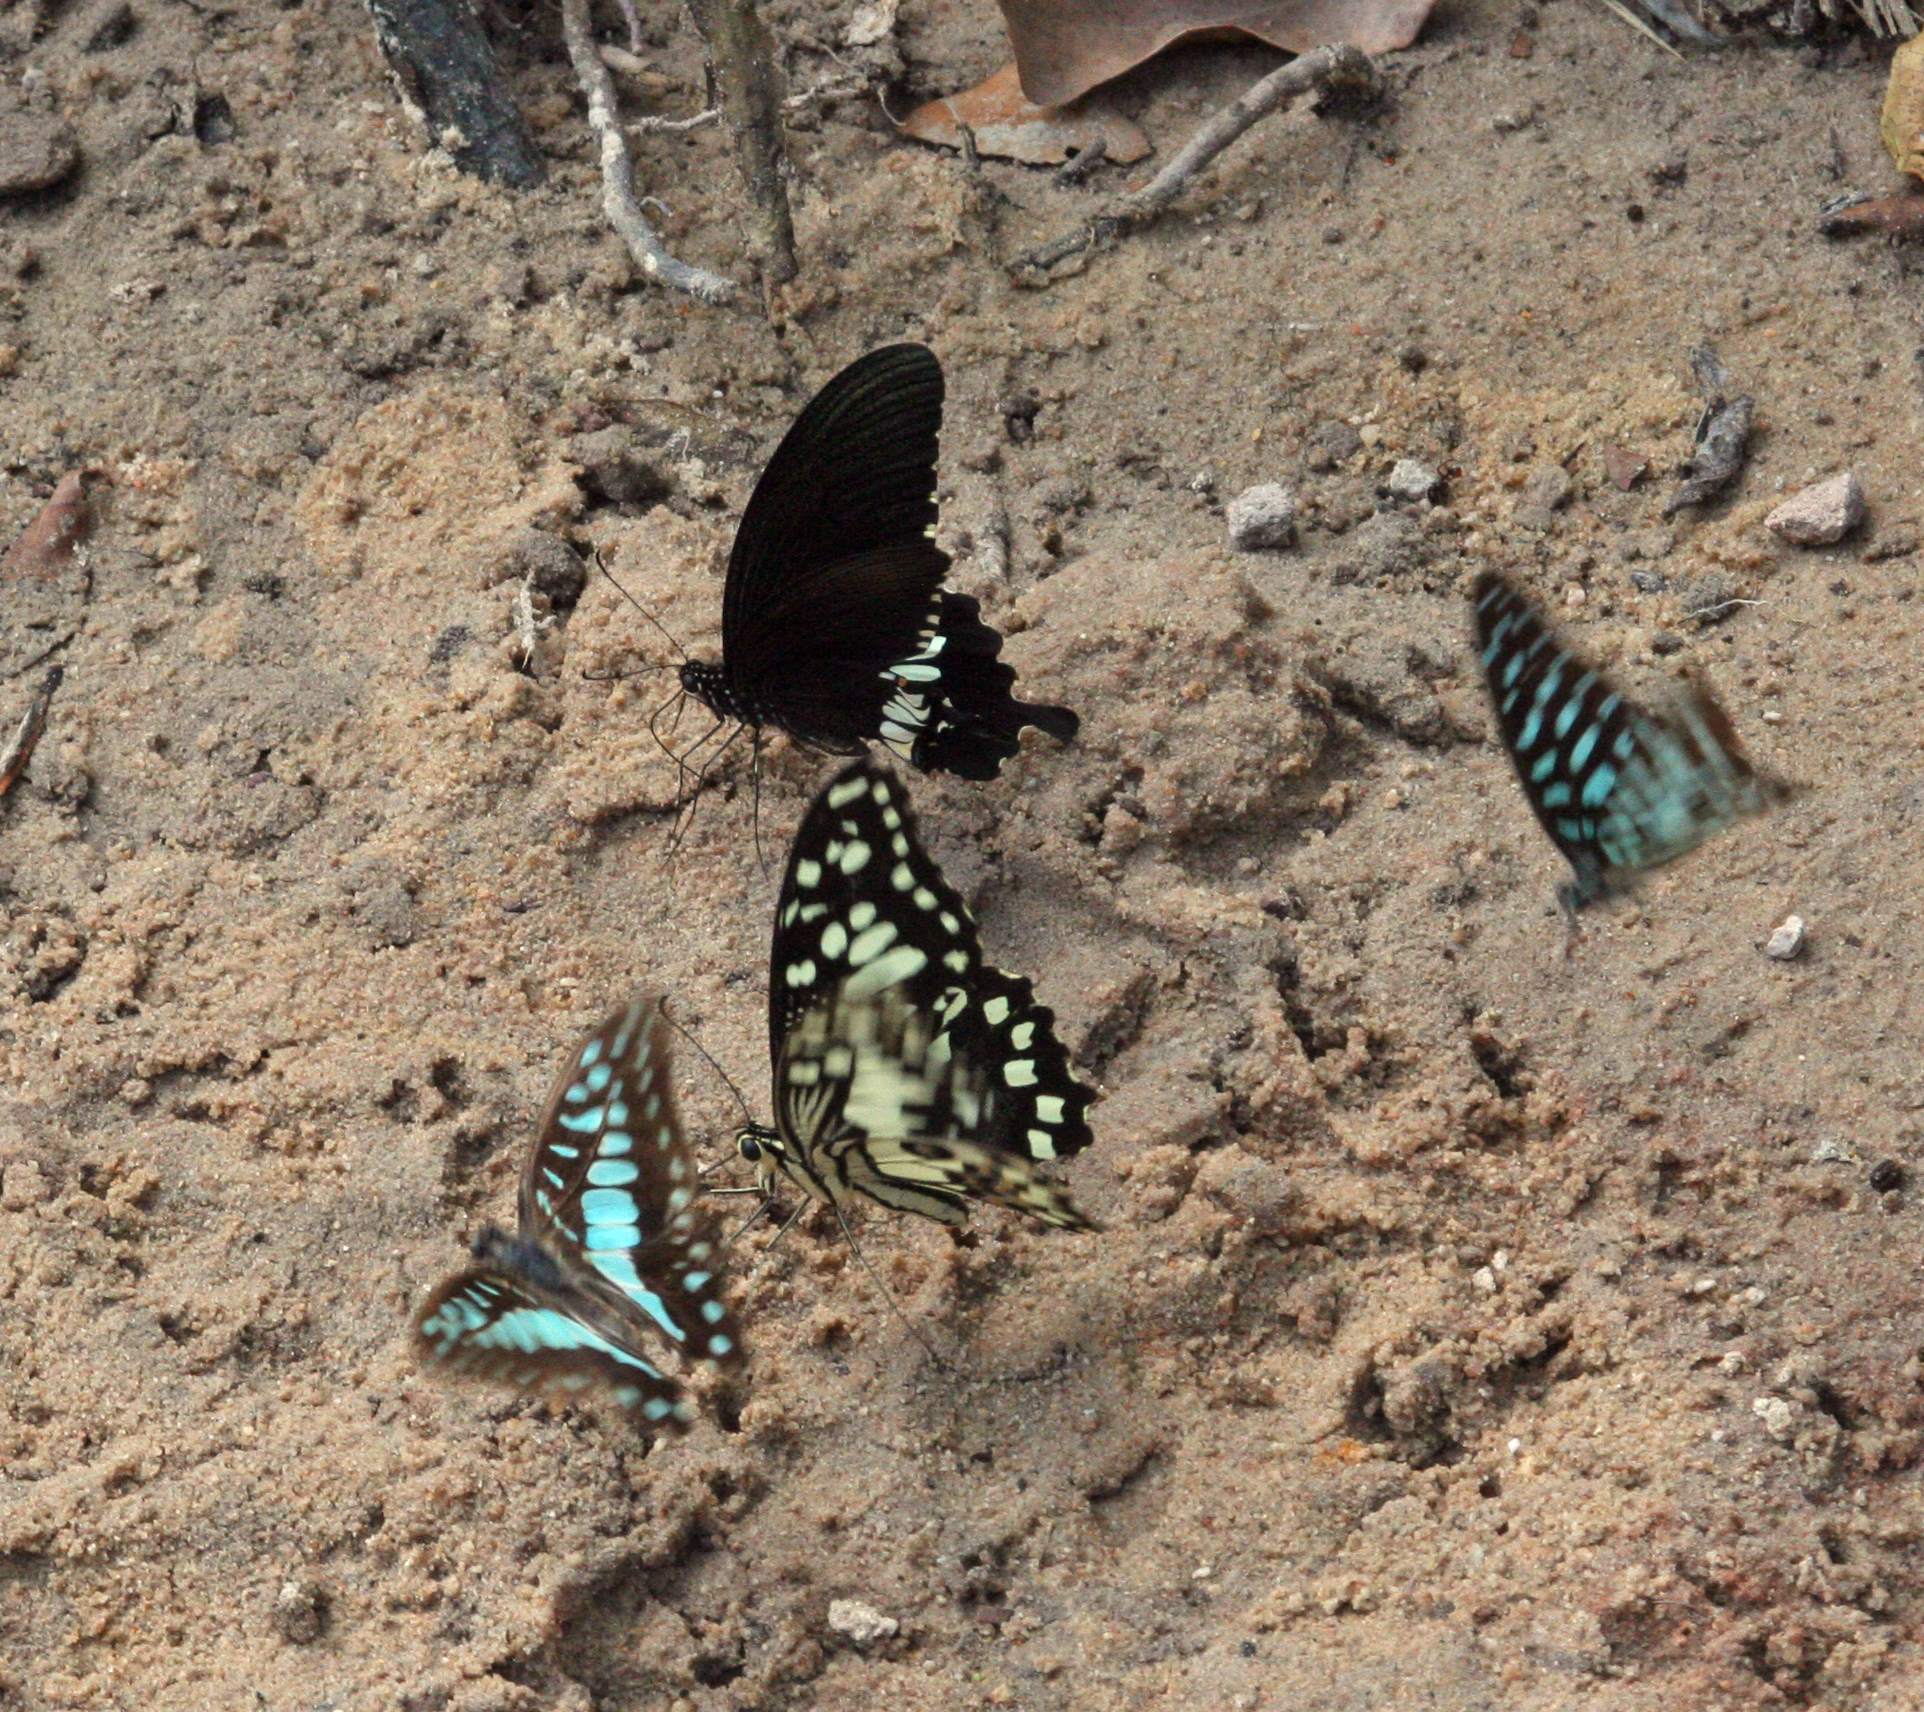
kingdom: Animalia
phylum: Arthropoda
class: Insecta
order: Lepidoptera
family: Papilionidae
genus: Papilio
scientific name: Papilio polytes
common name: Common mormon
